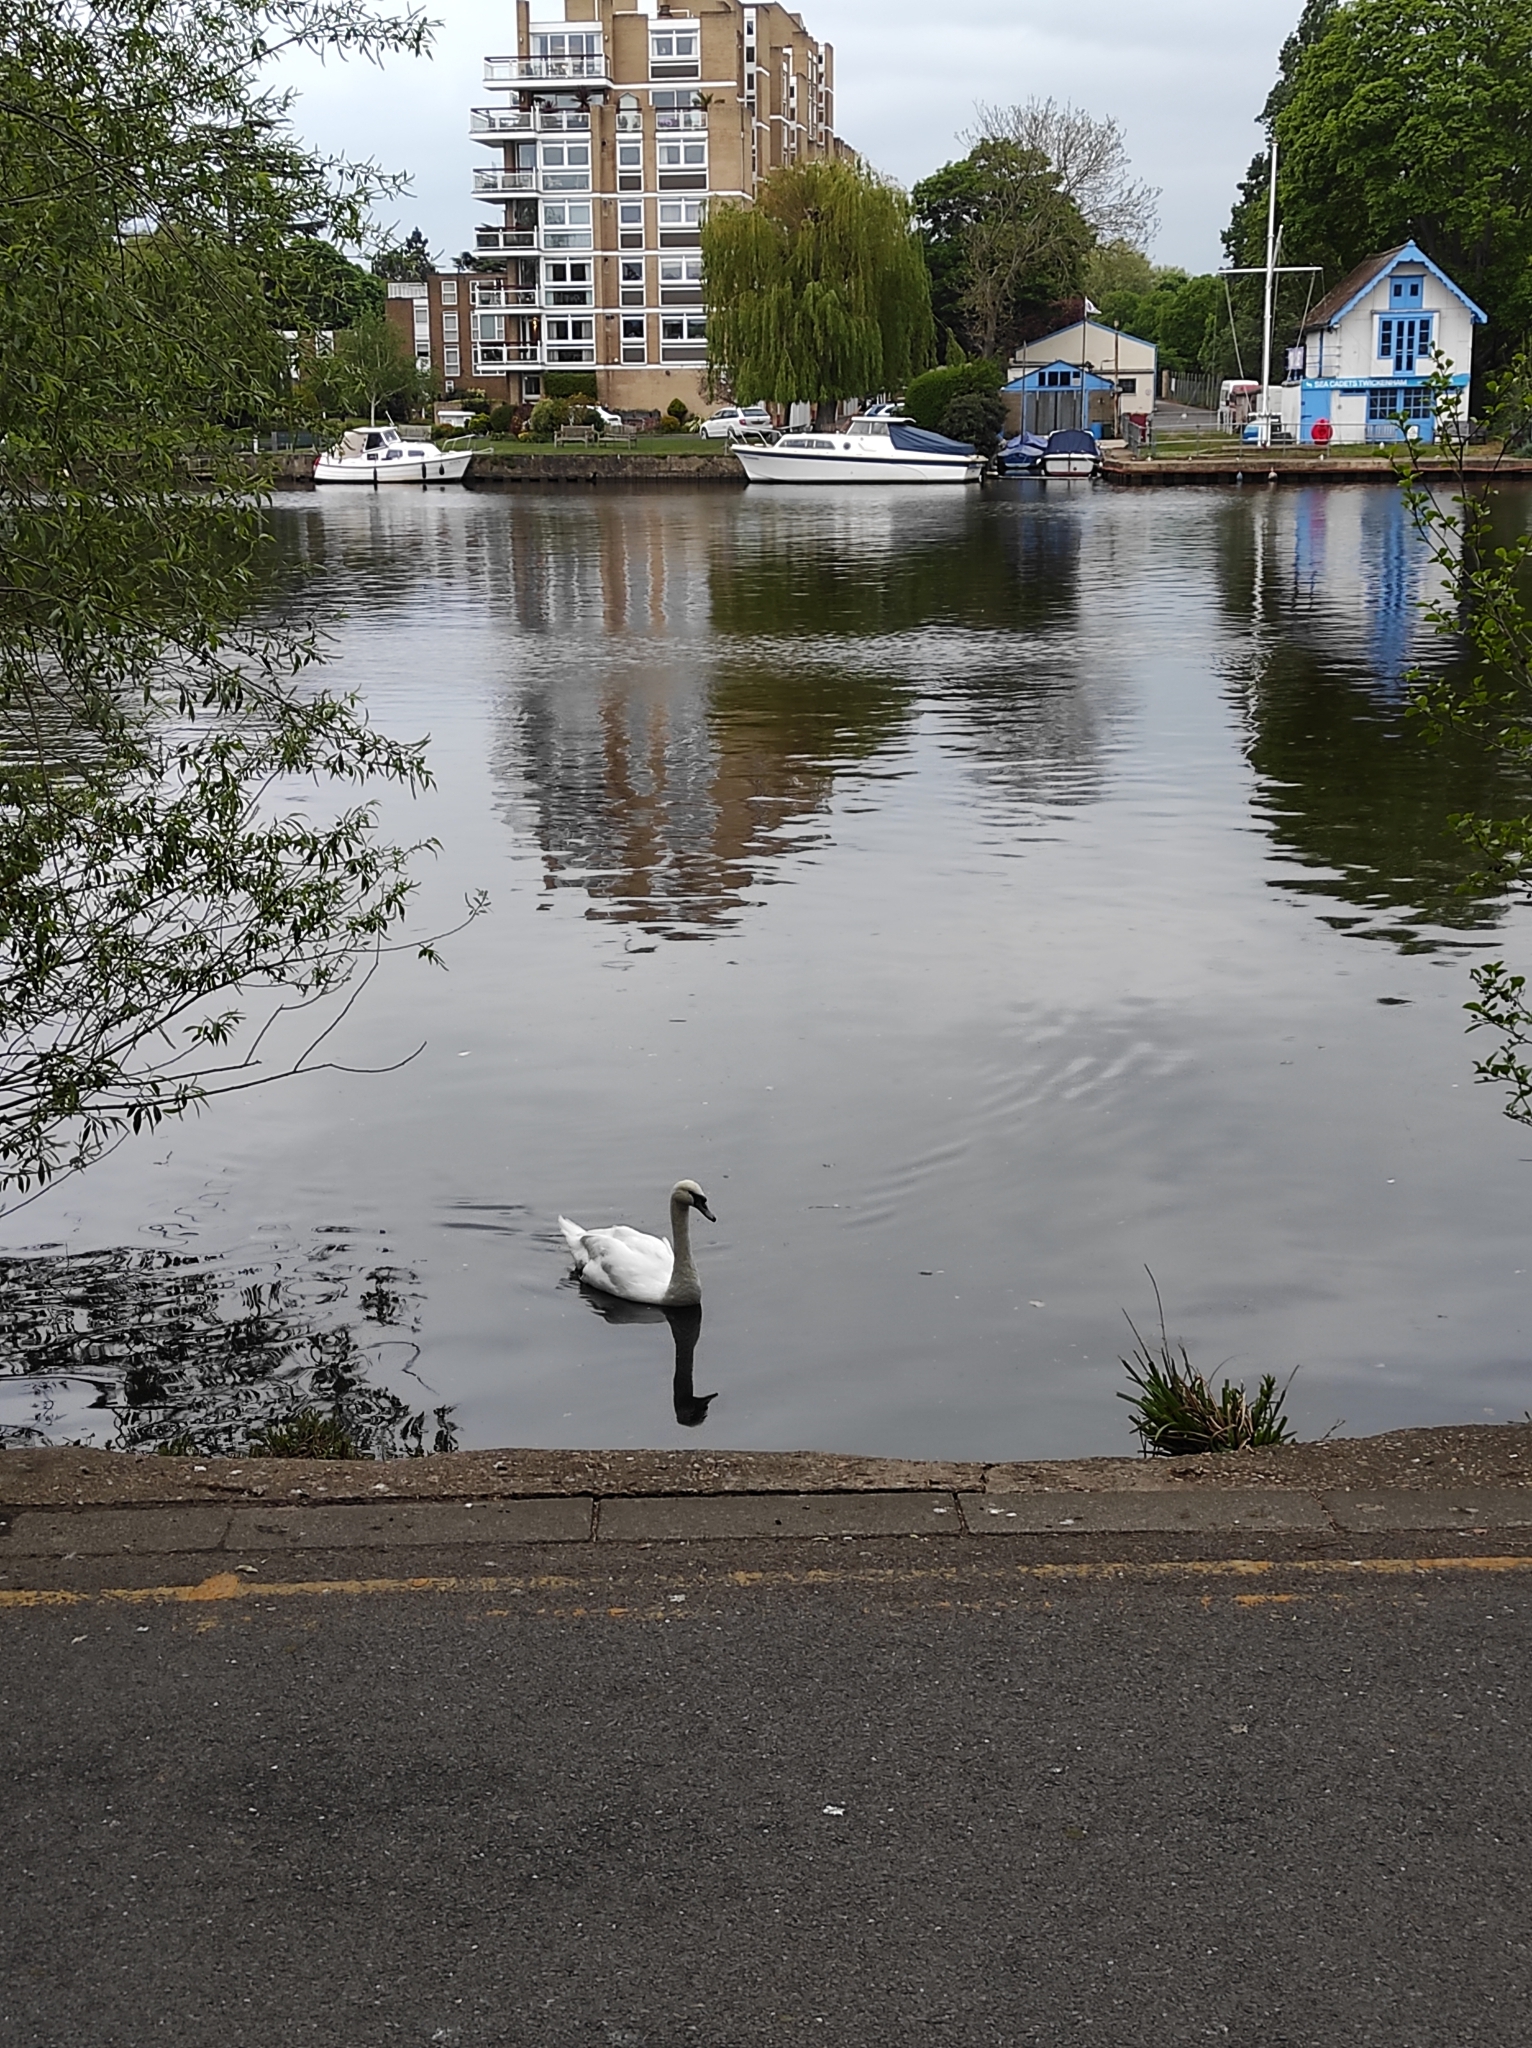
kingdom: Animalia
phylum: Chordata
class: Aves
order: Anseriformes
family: Anatidae
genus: Cygnus
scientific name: Cygnus olor
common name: Mute swan
